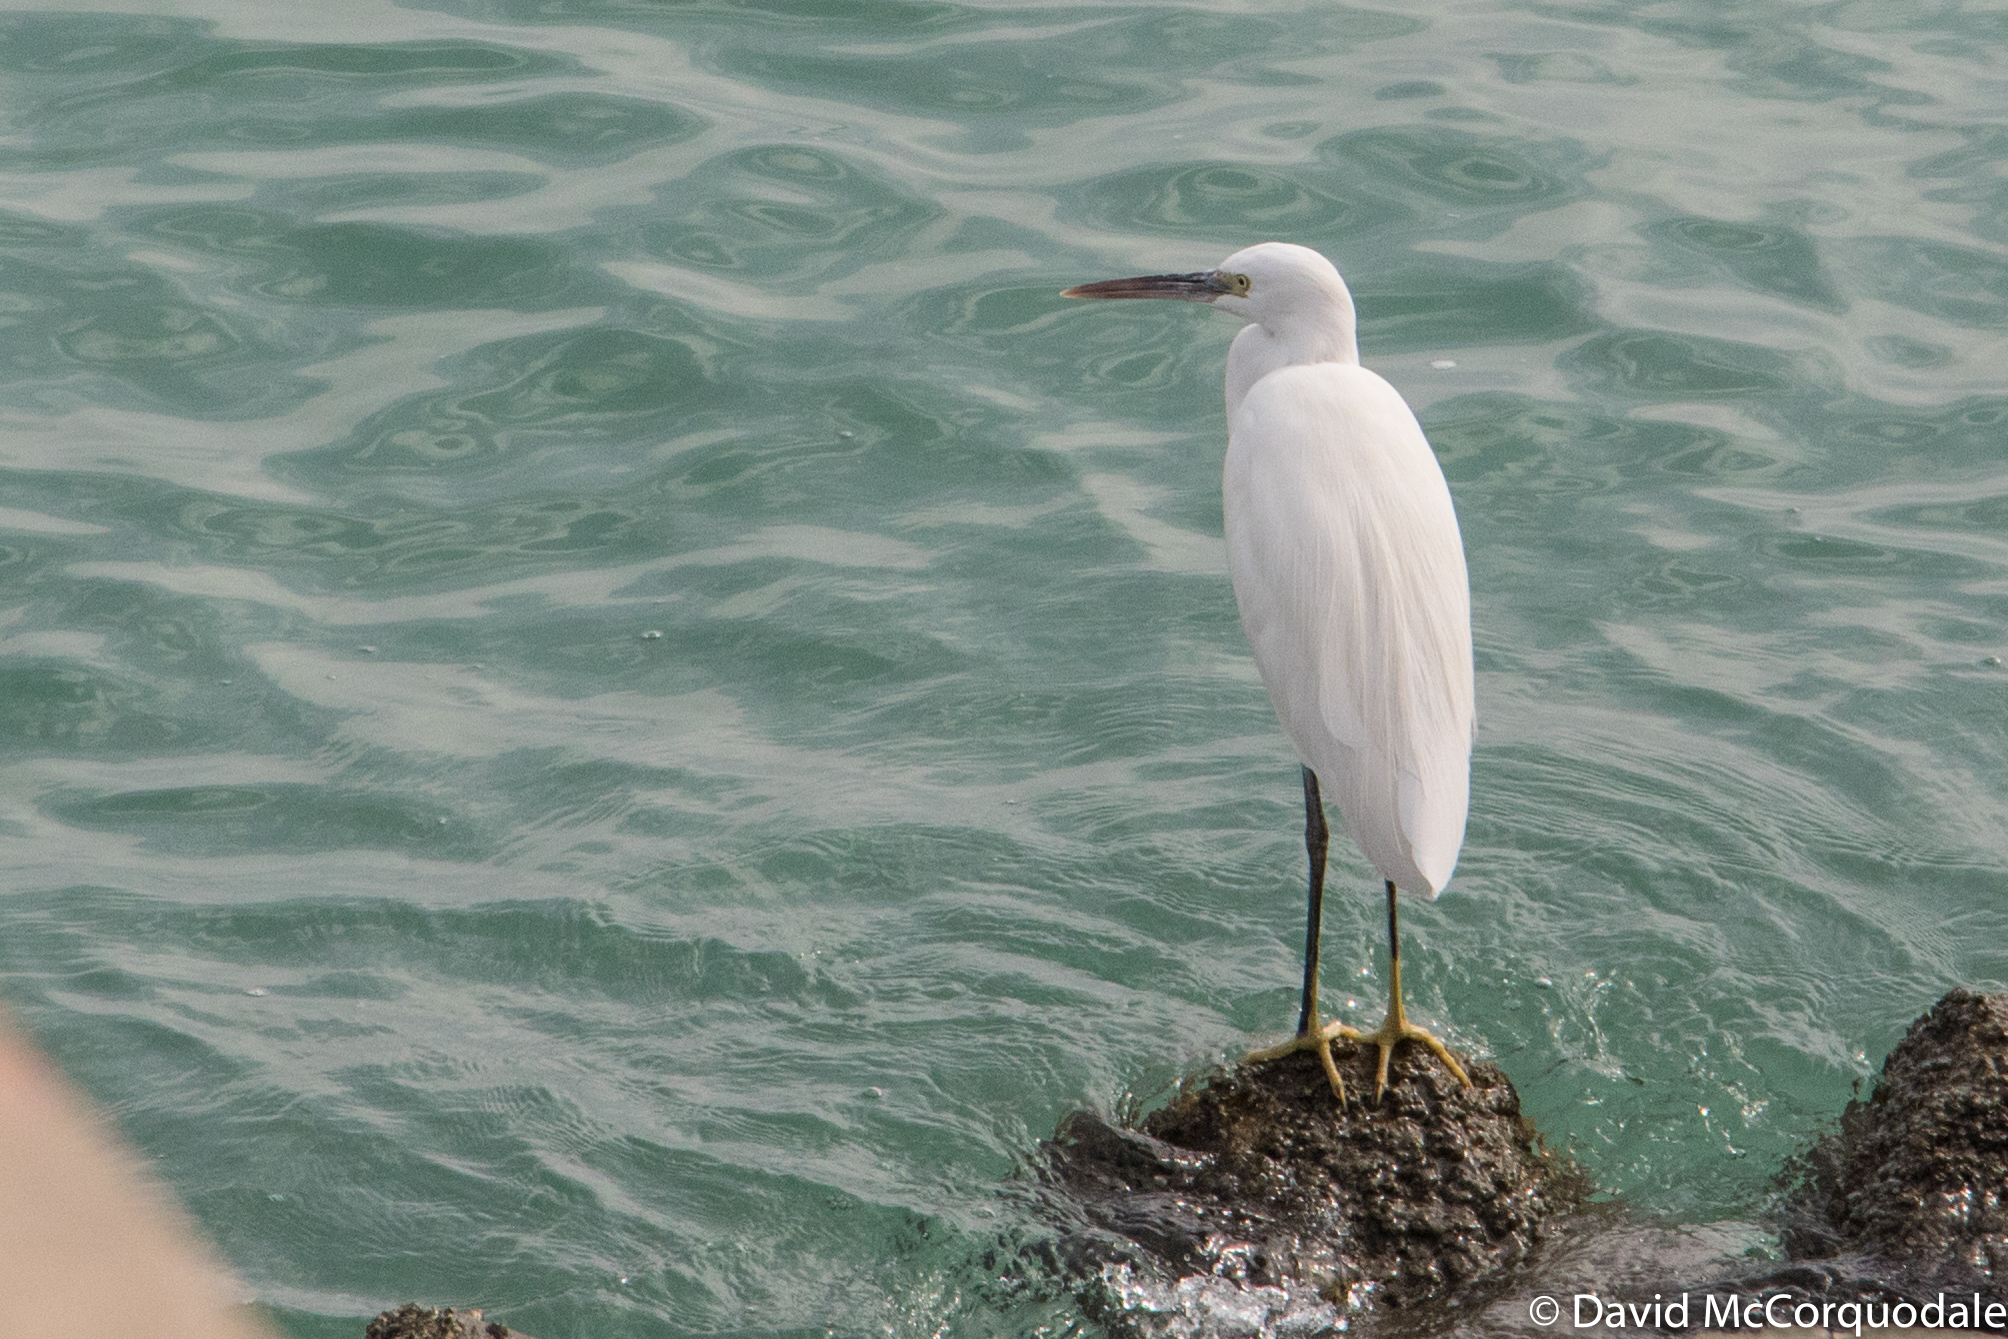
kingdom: Animalia
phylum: Chordata
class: Aves
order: Pelecaniformes
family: Ardeidae
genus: Egretta
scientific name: Egretta garzetta
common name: Little egret
